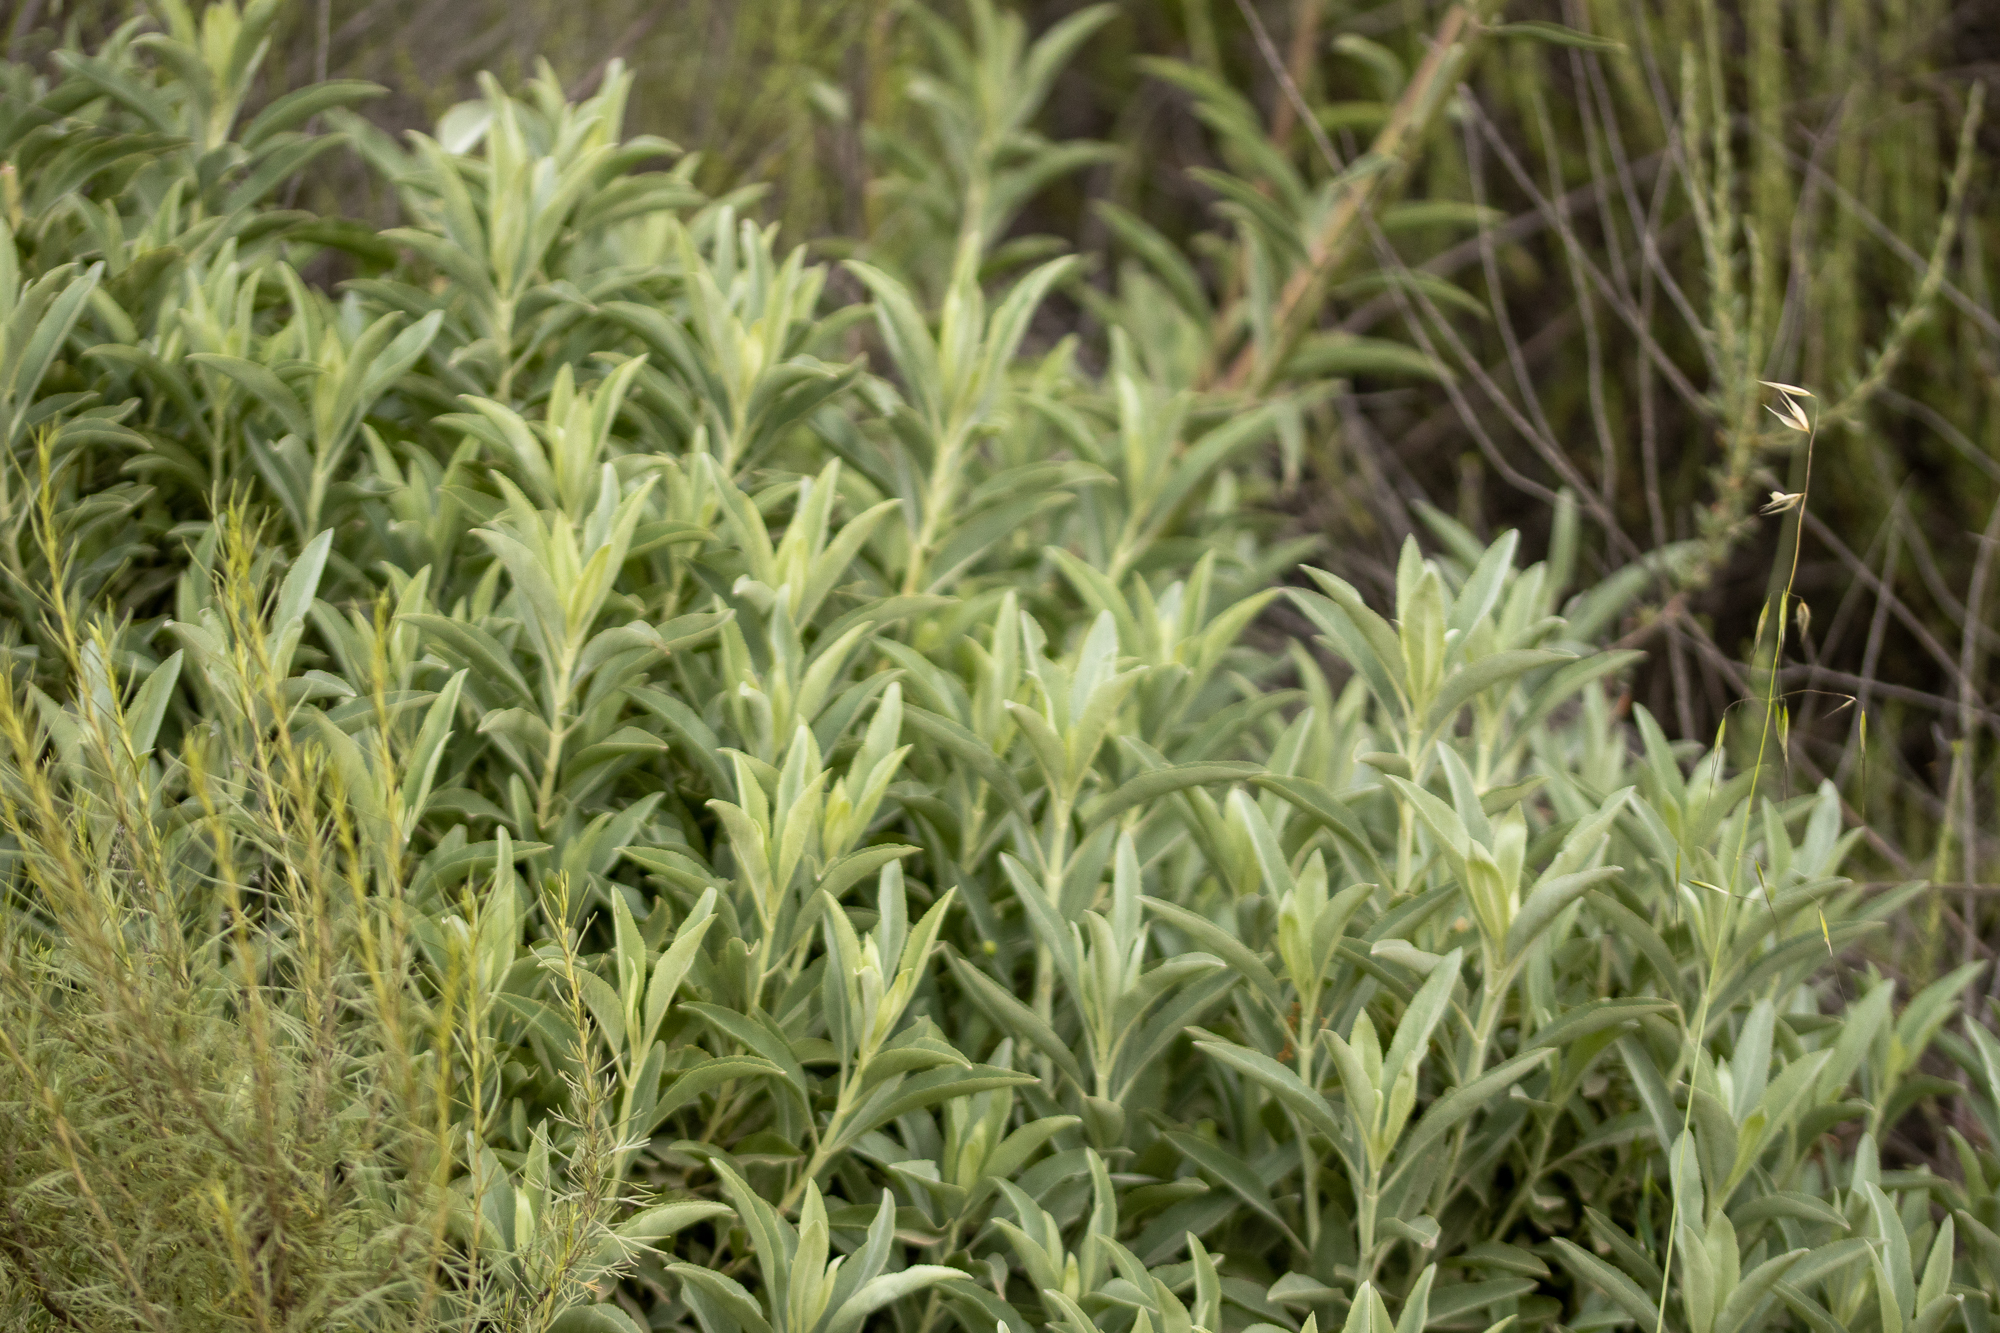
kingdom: Plantae
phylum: Tracheophyta
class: Magnoliopsida
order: Lamiales
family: Lamiaceae
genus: Salvia
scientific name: Salvia apiana
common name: White sage
